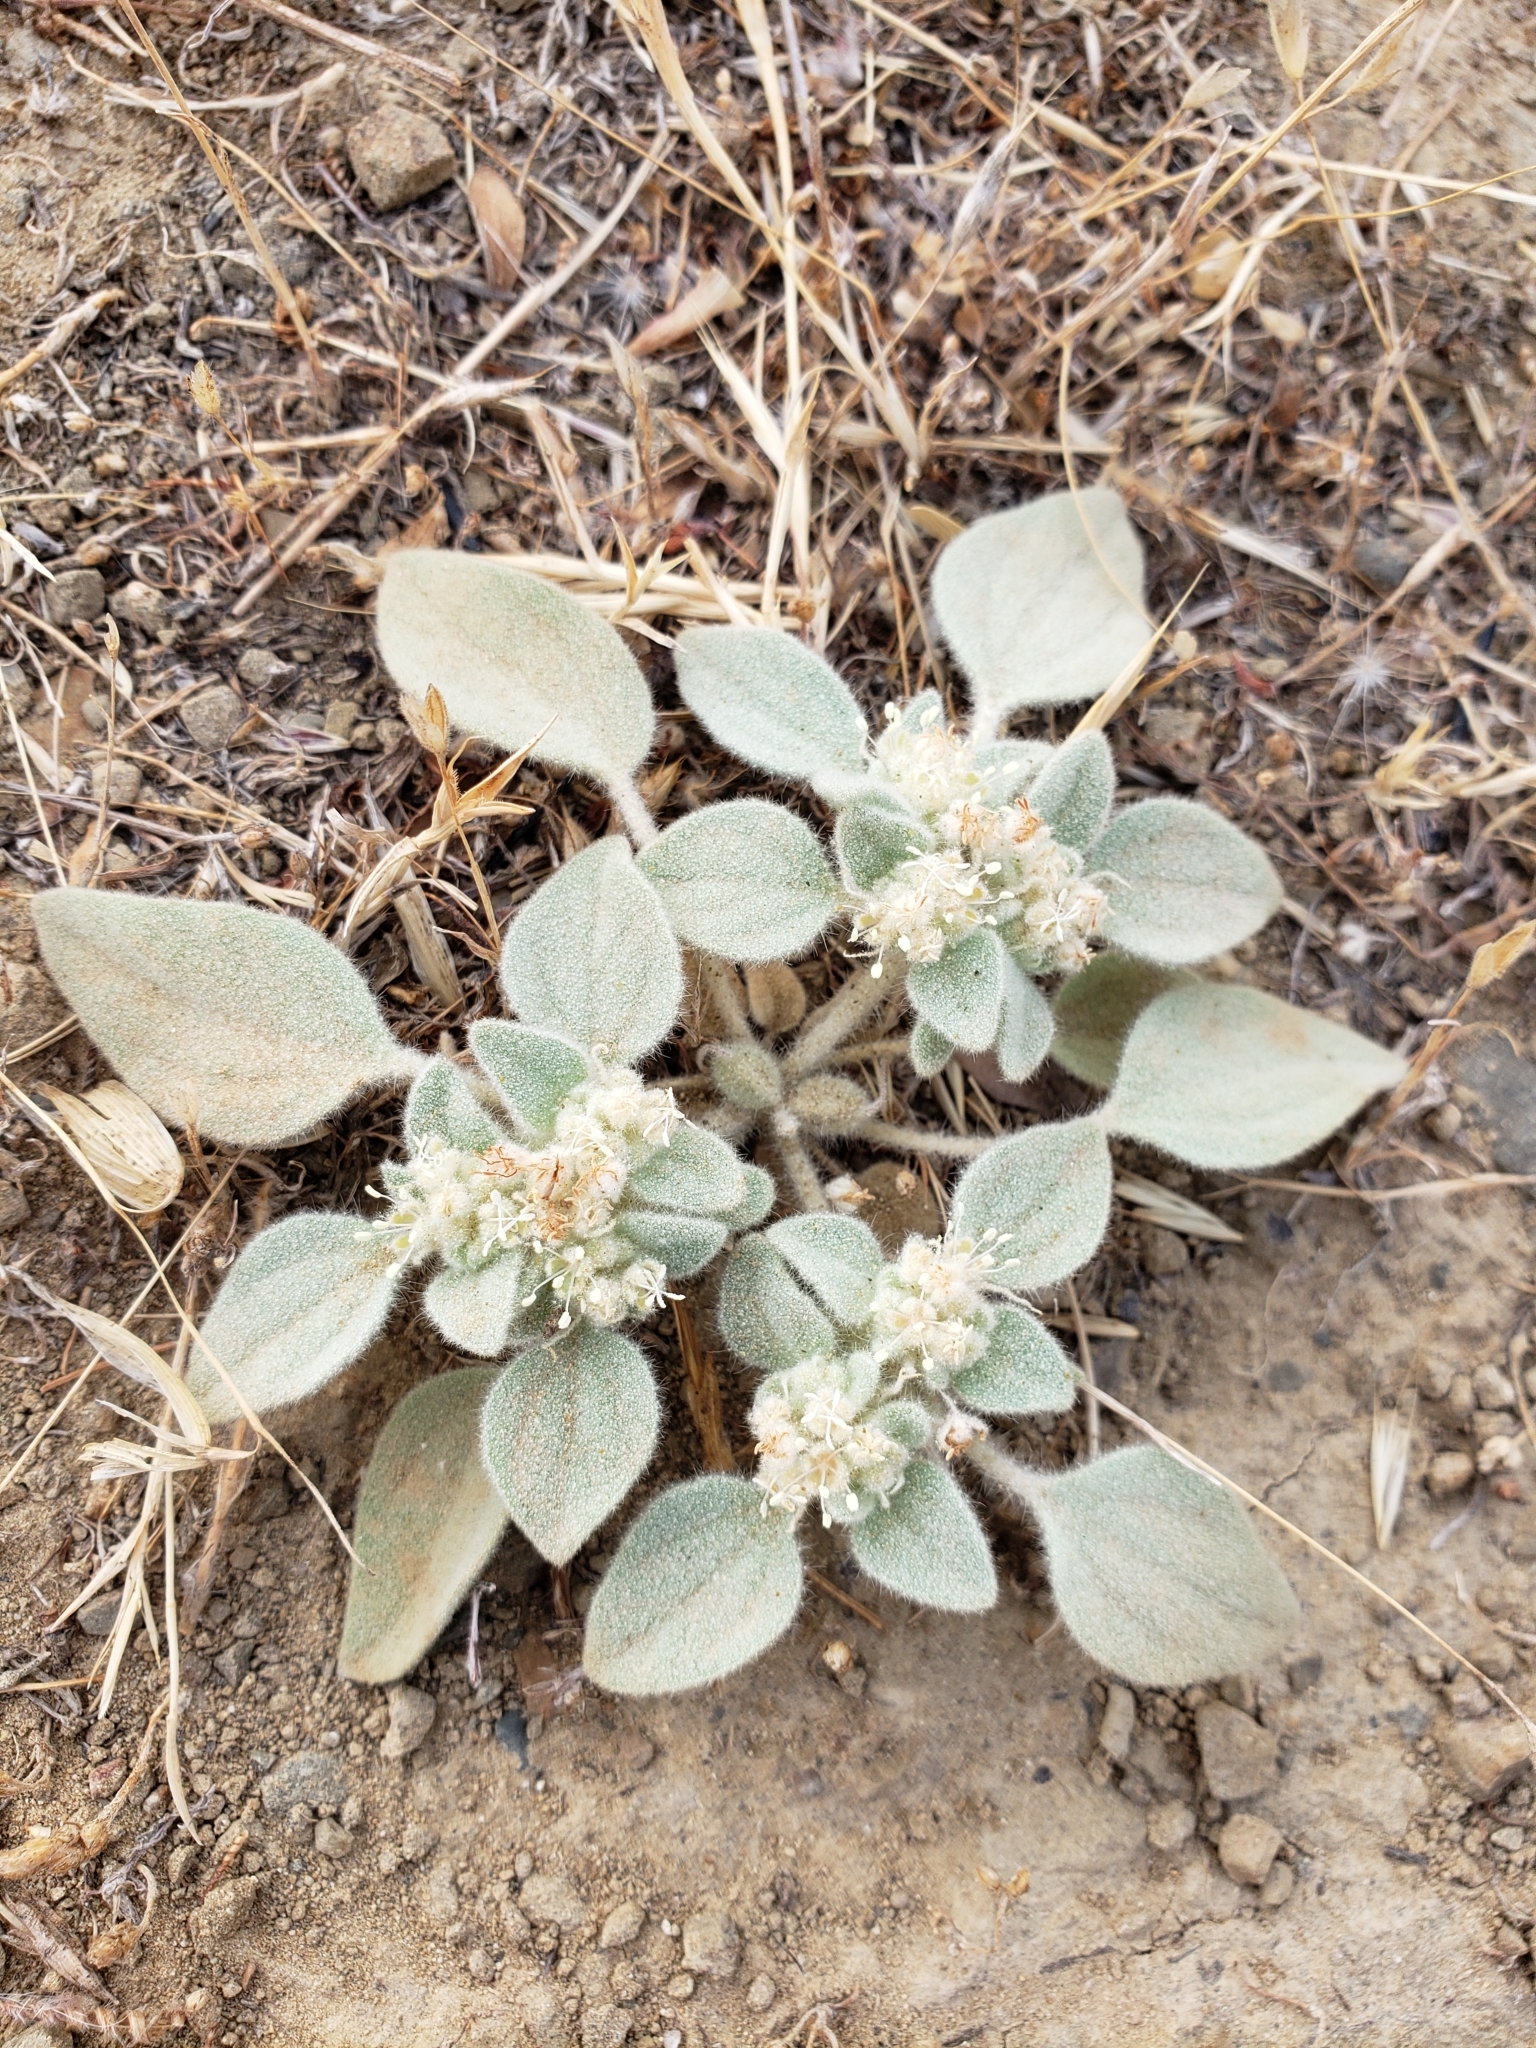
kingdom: Plantae
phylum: Tracheophyta
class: Magnoliopsida
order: Malpighiales
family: Euphorbiaceae
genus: Croton
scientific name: Croton setiger
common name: Dove weed
